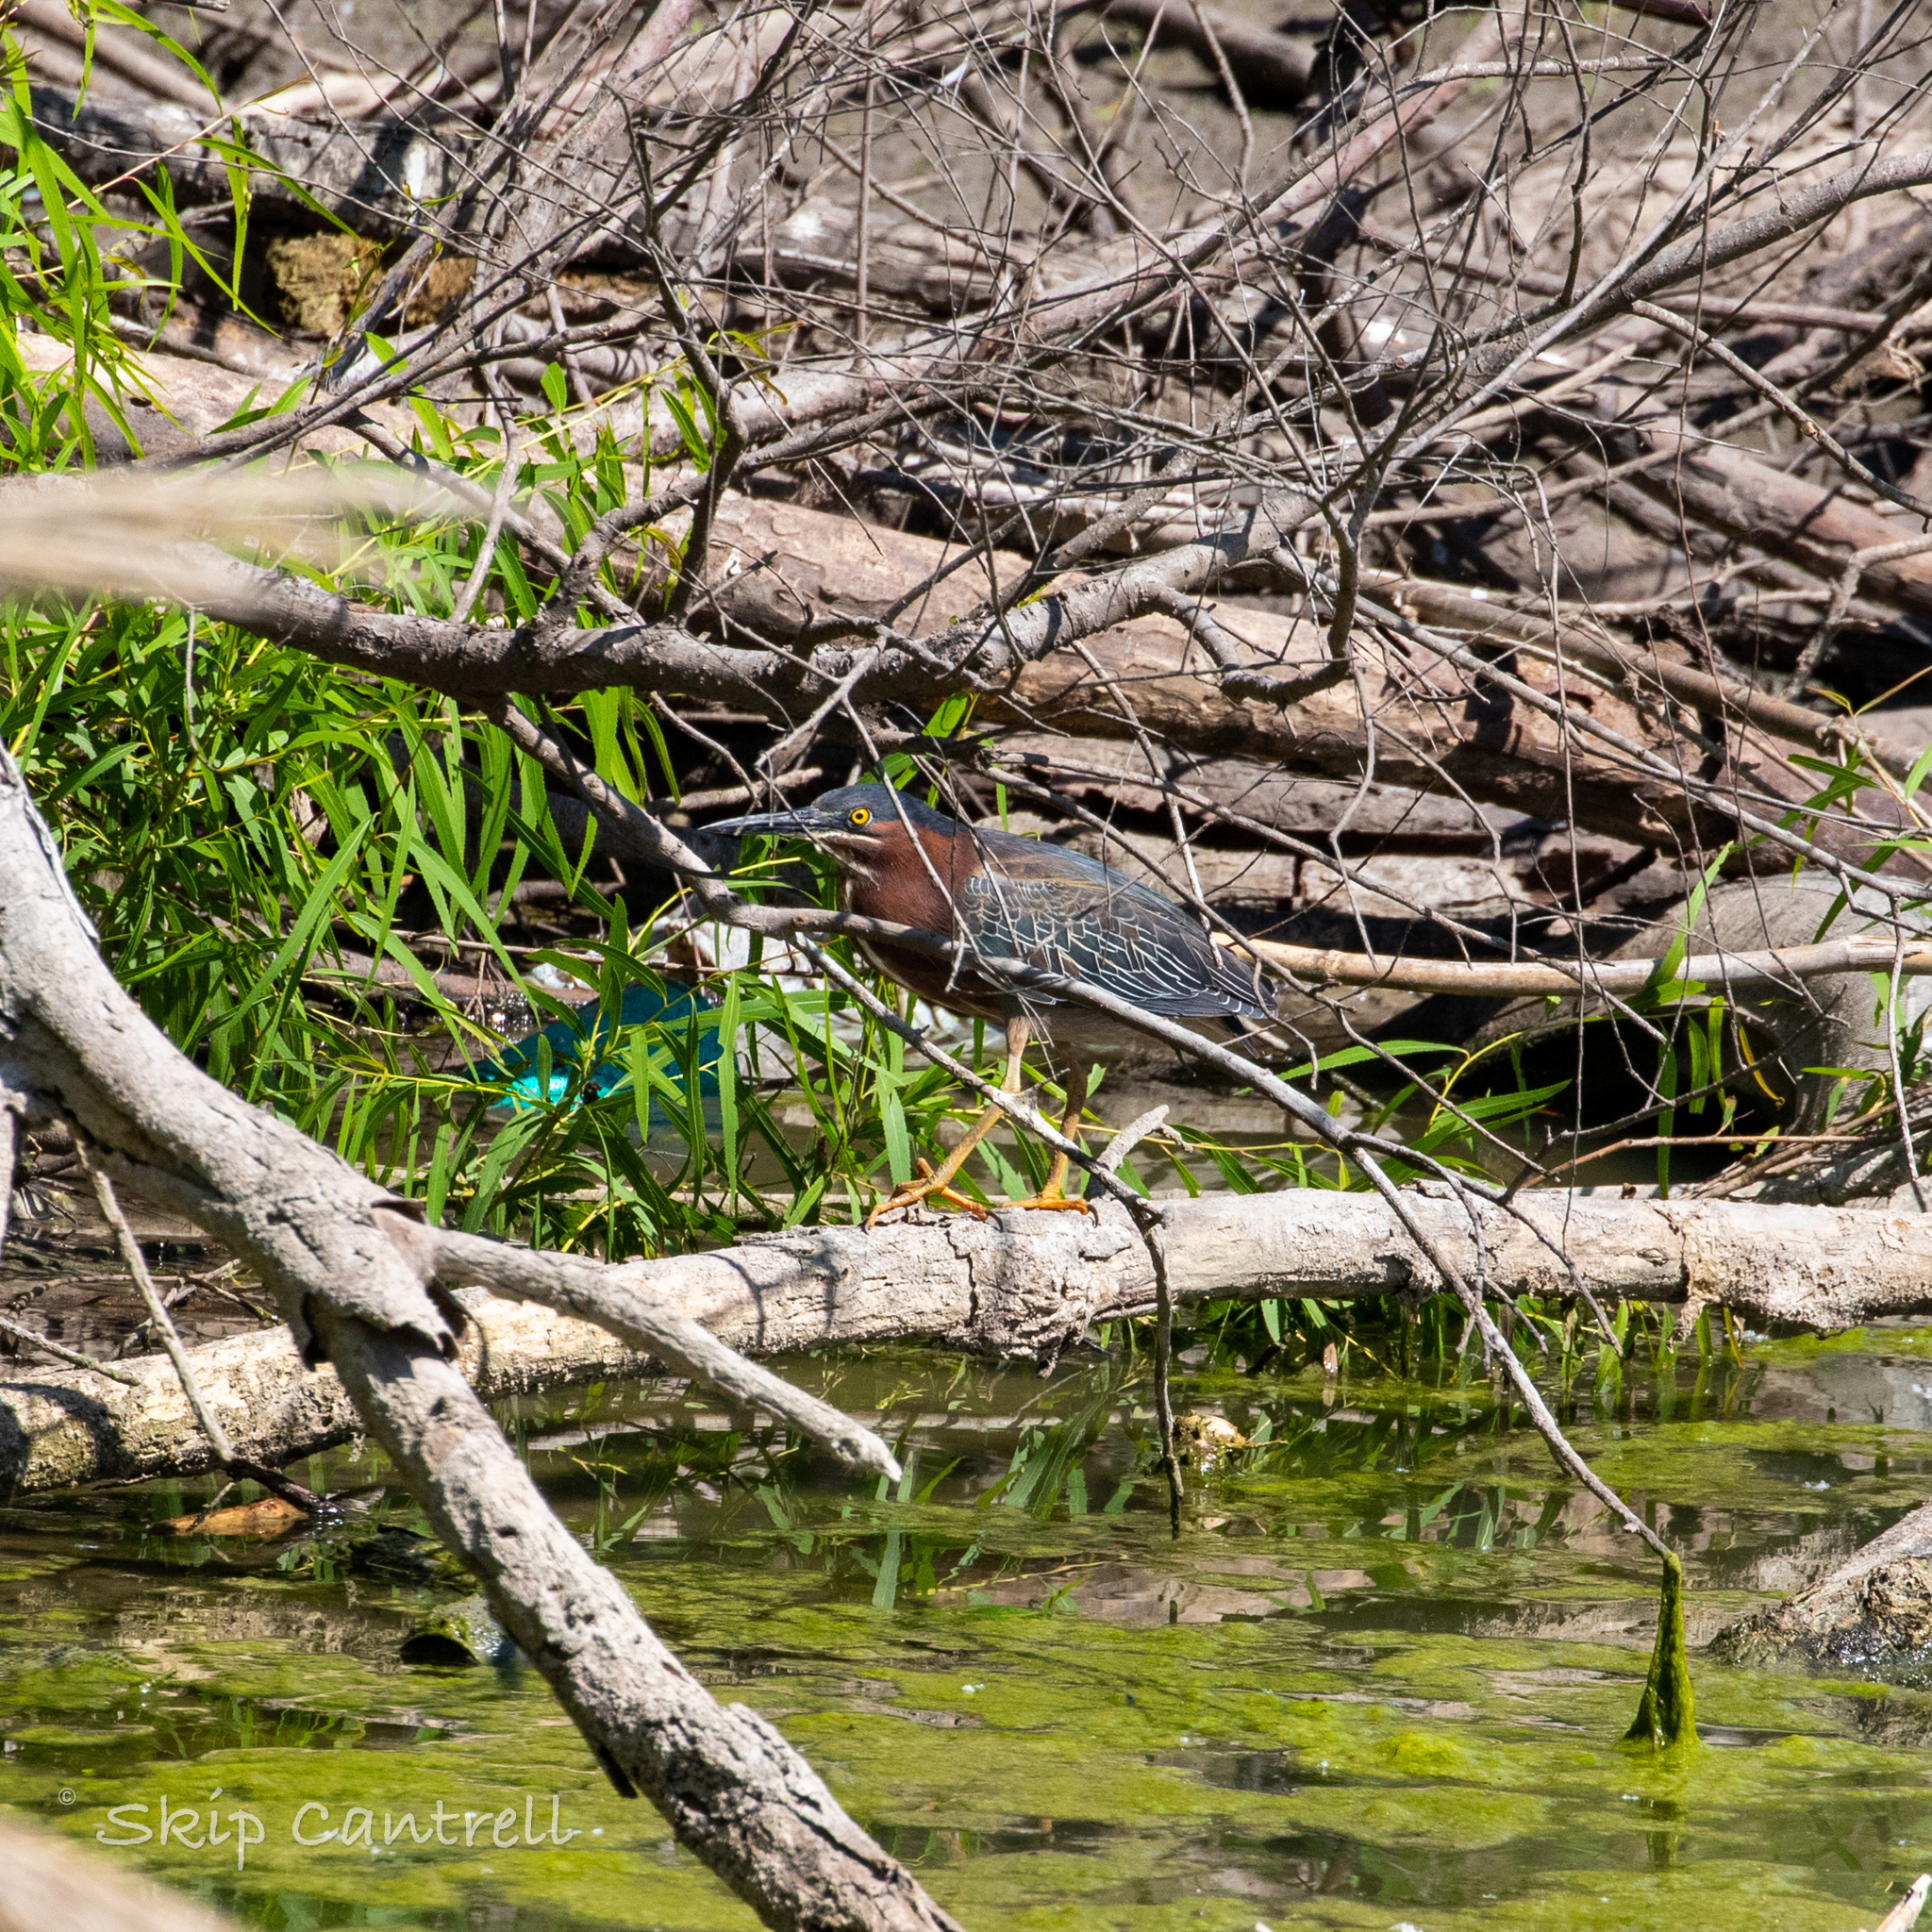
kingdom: Animalia
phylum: Chordata
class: Aves
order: Pelecaniformes
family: Ardeidae
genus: Butorides
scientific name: Butorides virescens
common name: Green heron
